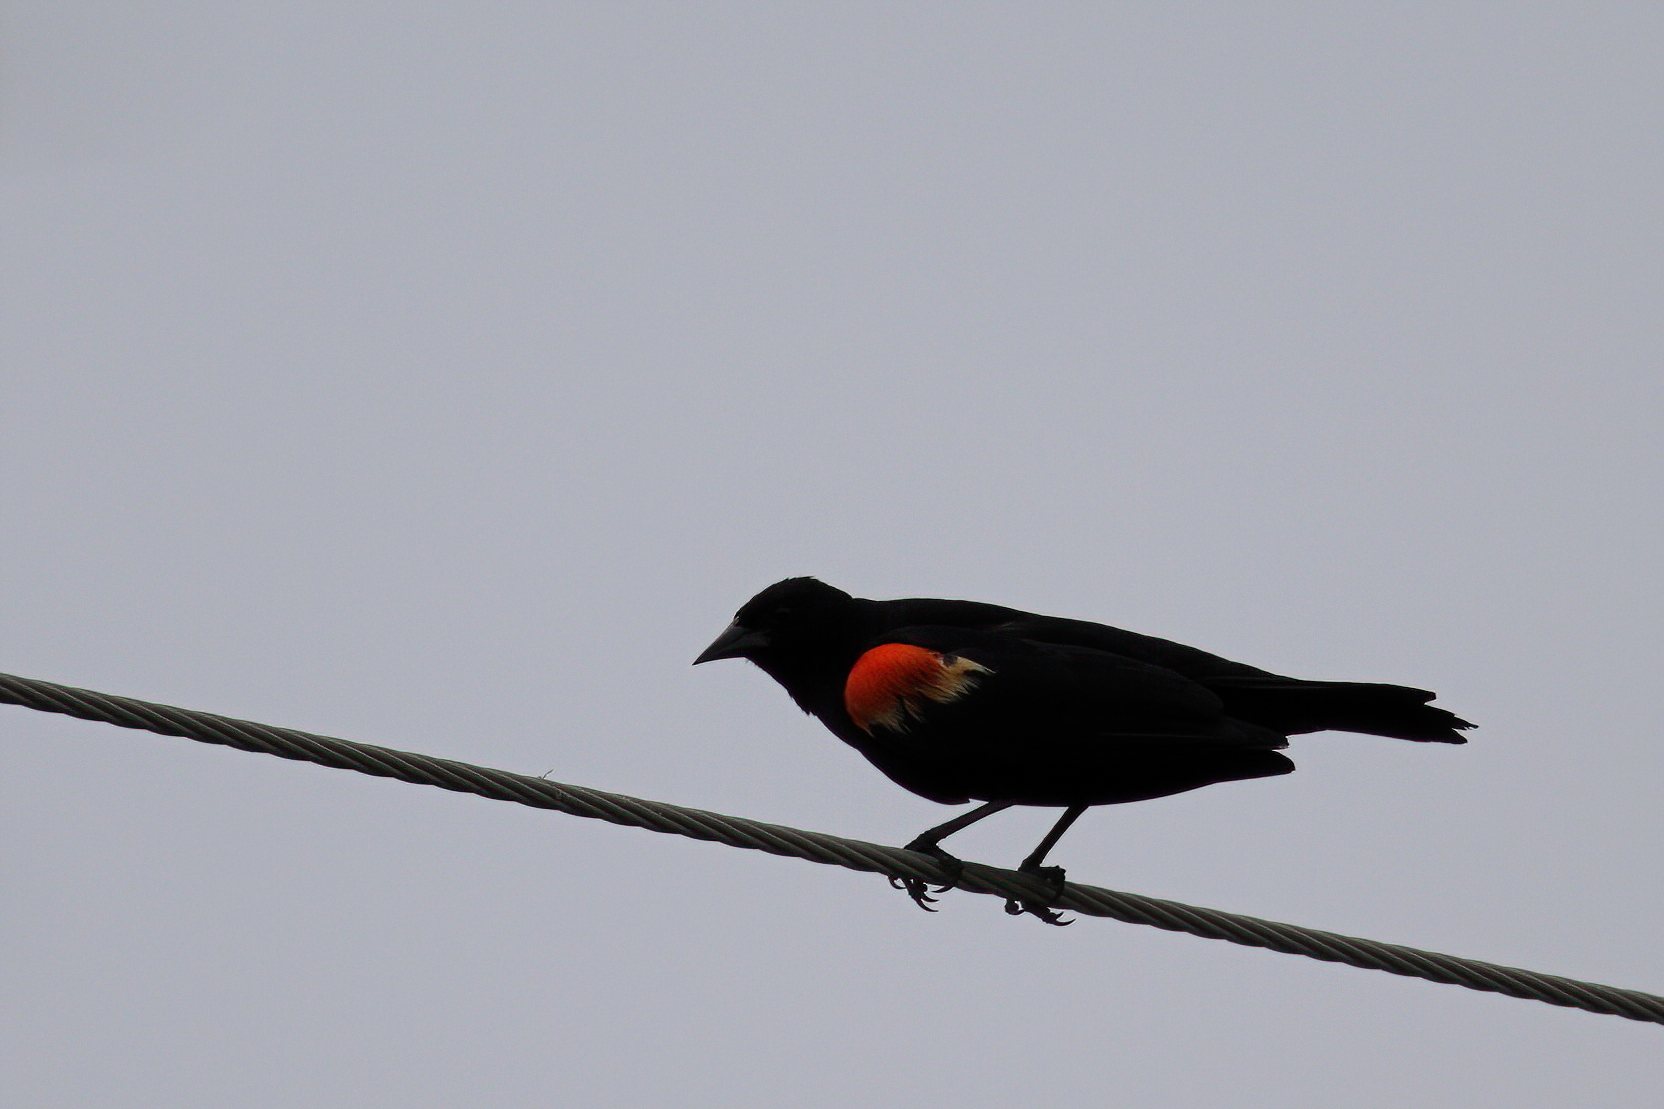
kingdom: Animalia
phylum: Chordata
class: Aves
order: Passeriformes
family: Icteridae
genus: Agelaius
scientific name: Agelaius phoeniceus
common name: Red-winged blackbird
